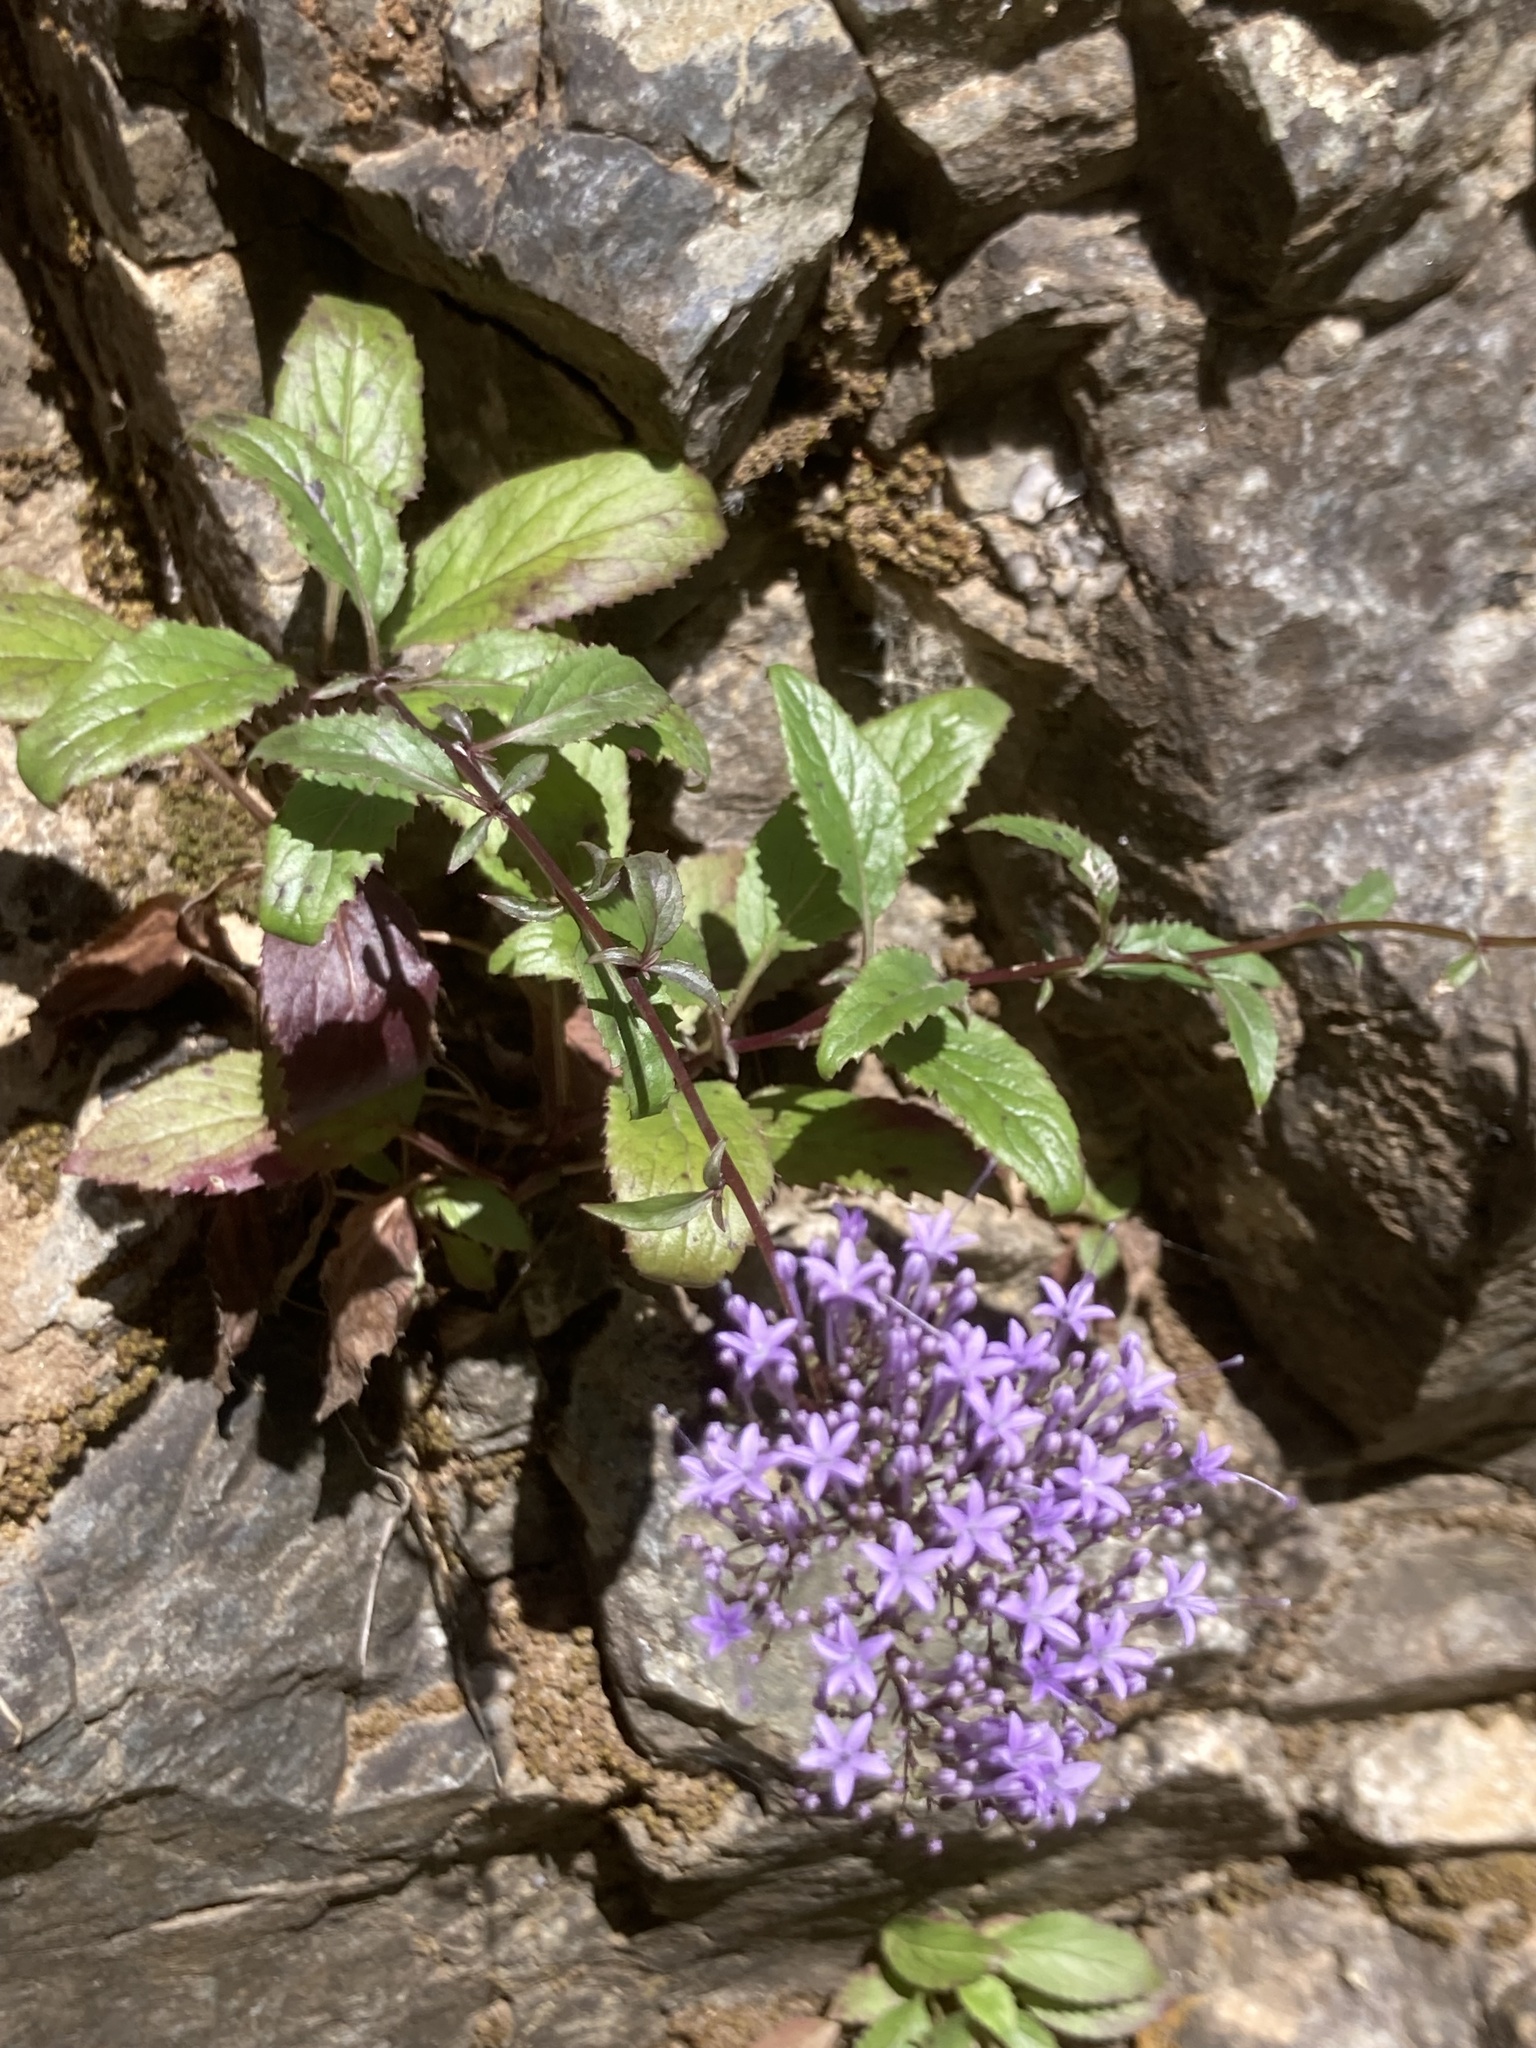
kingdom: Plantae
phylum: Tracheophyta
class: Magnoliopsida
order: Asterales
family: Campanulaceae
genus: Trachelium
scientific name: Trachelium caeruleum
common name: Throatwort
